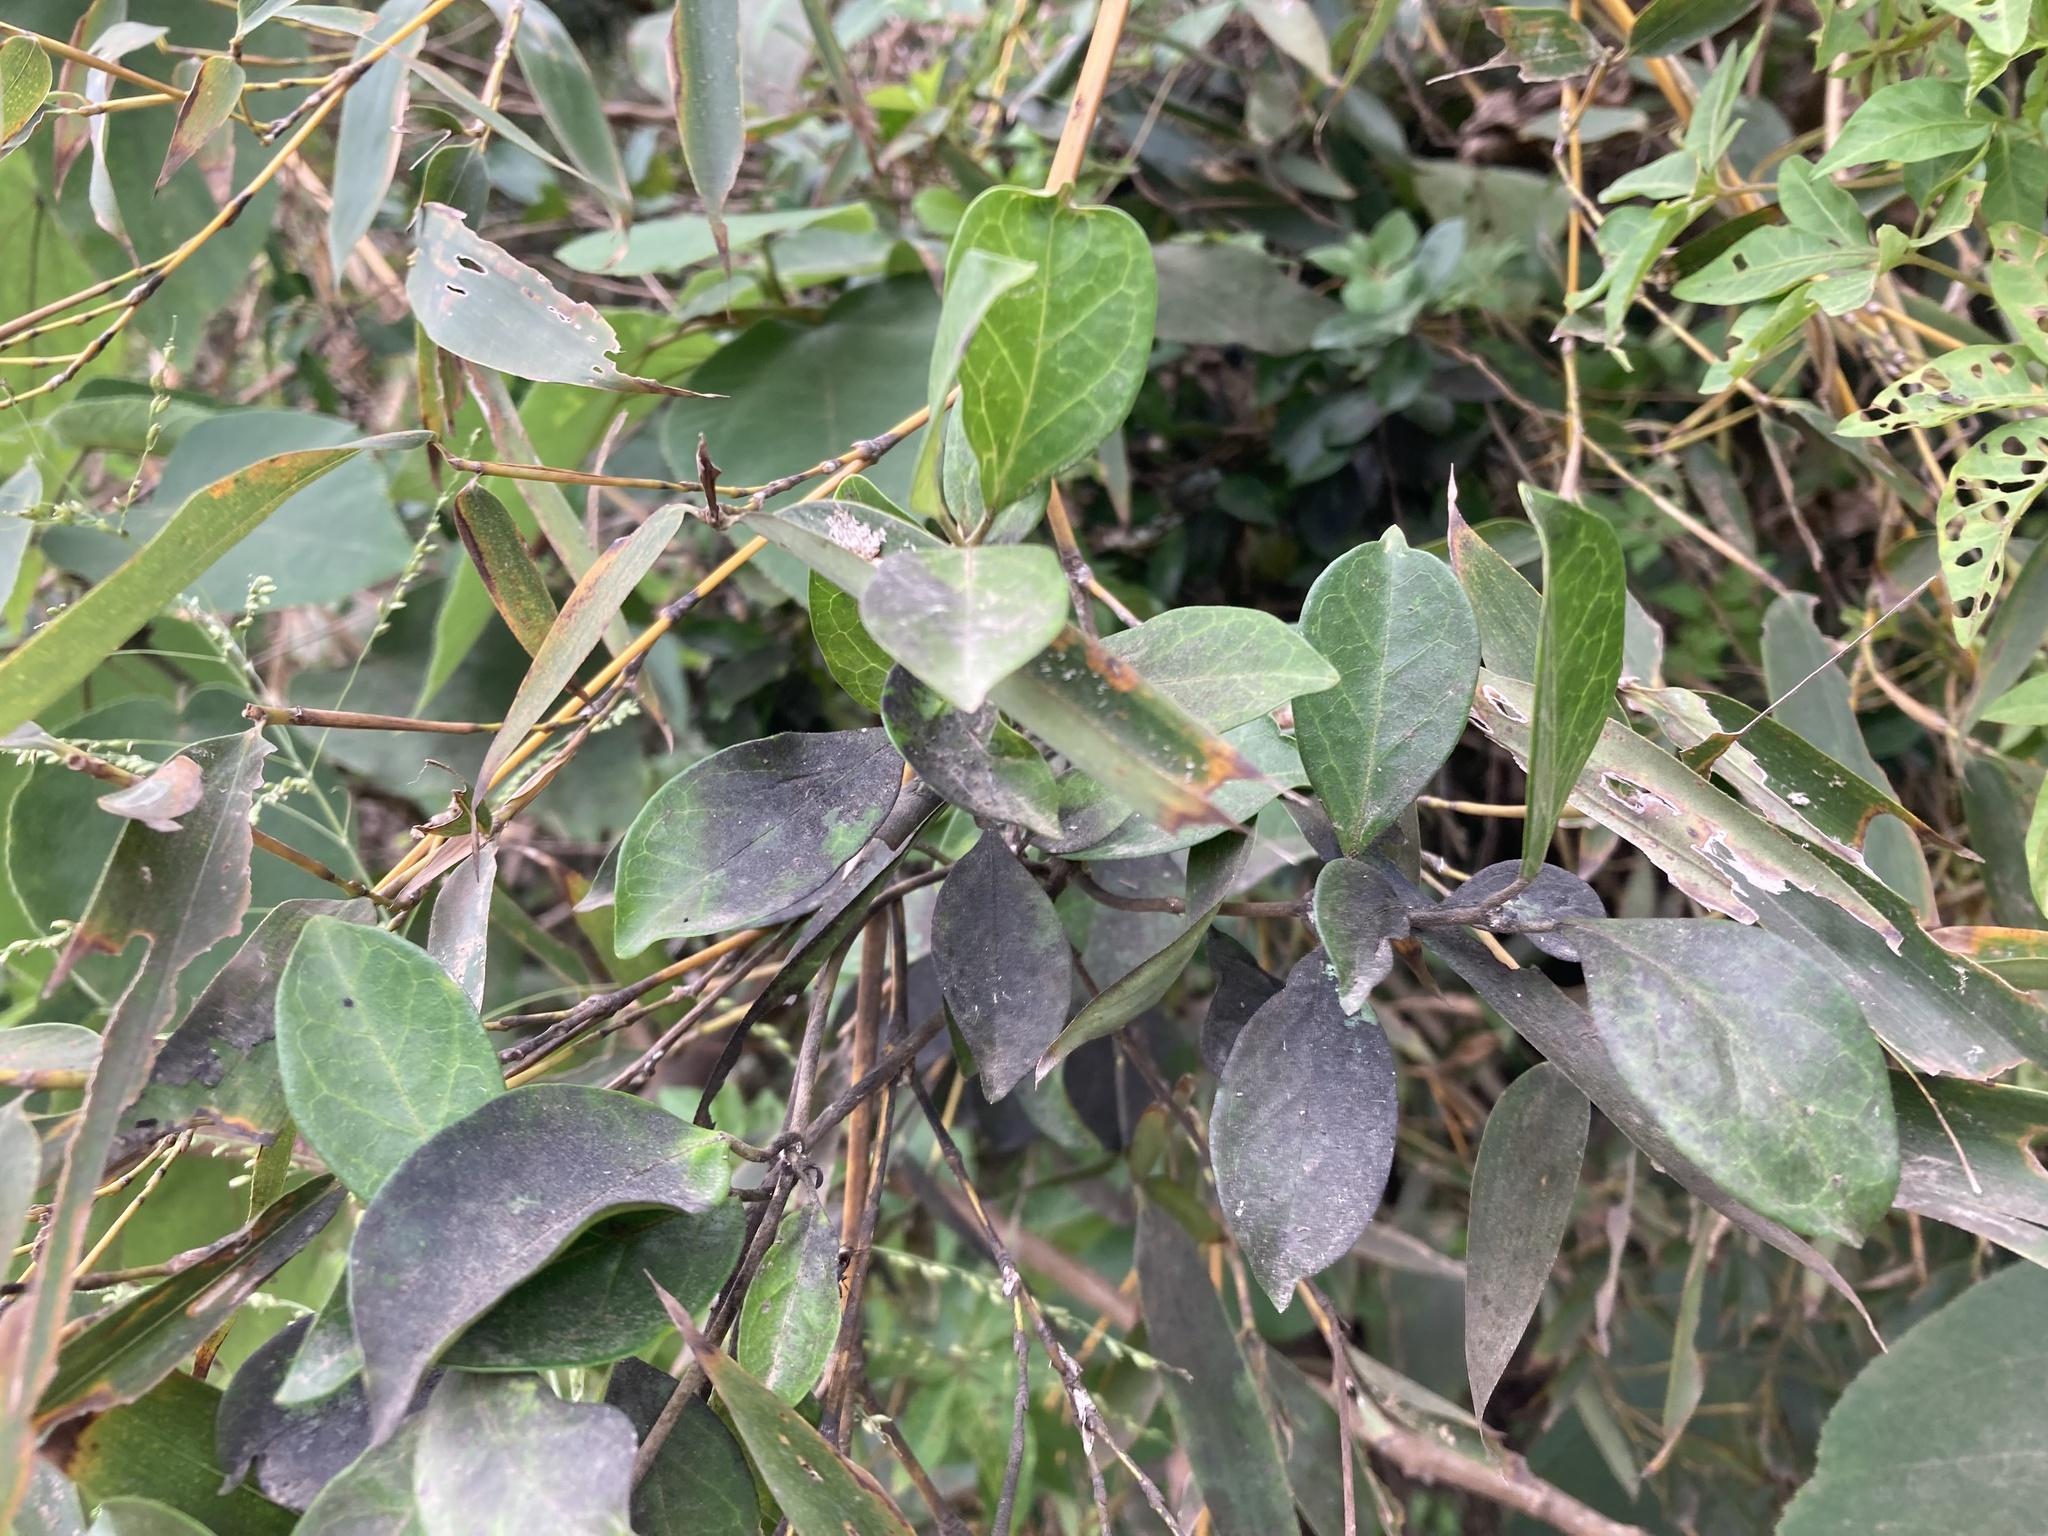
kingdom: Plantae
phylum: Tracheophyta
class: Magnoliopsida
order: Gentianales
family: Apocynaceae
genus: Gymnema
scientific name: Gymnema sylvestre
